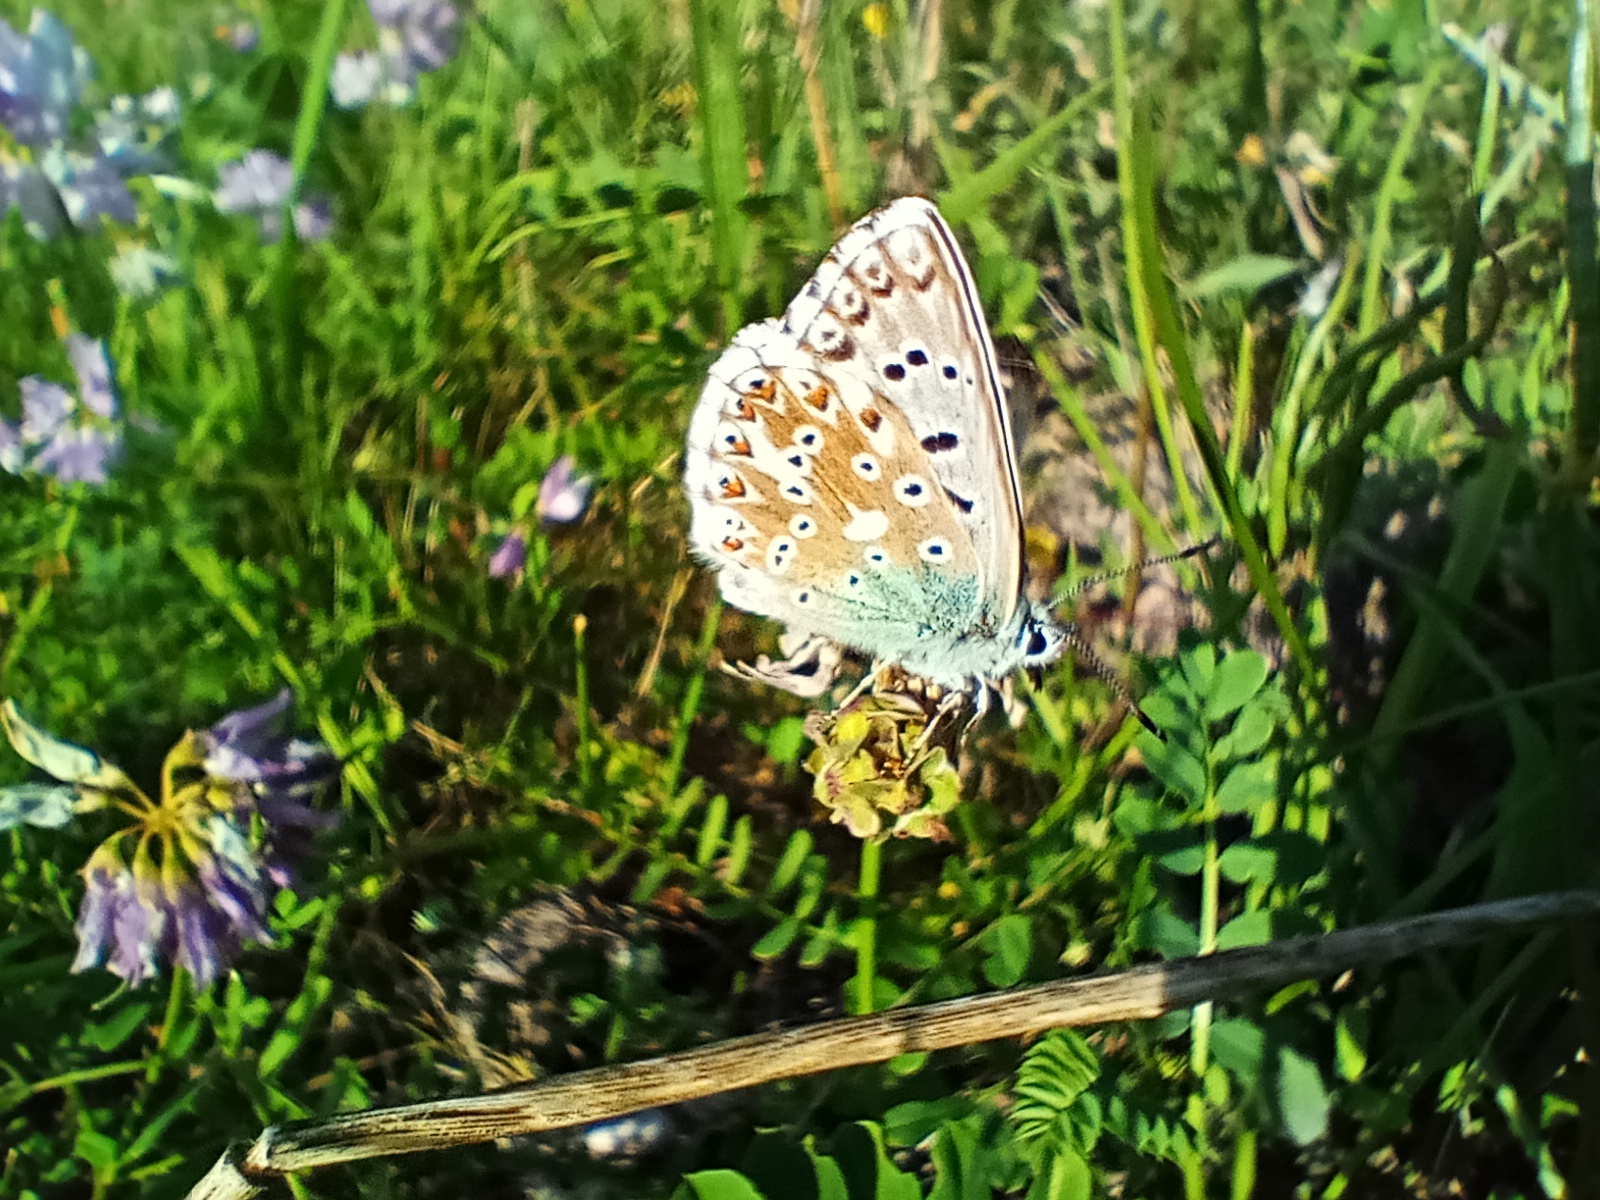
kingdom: Animalia
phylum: Arthropoda
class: Insecta
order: Lepidoptera
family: Lycaenidae
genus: Lysandra
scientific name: Lysandra coridon
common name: Chalkhill blue
